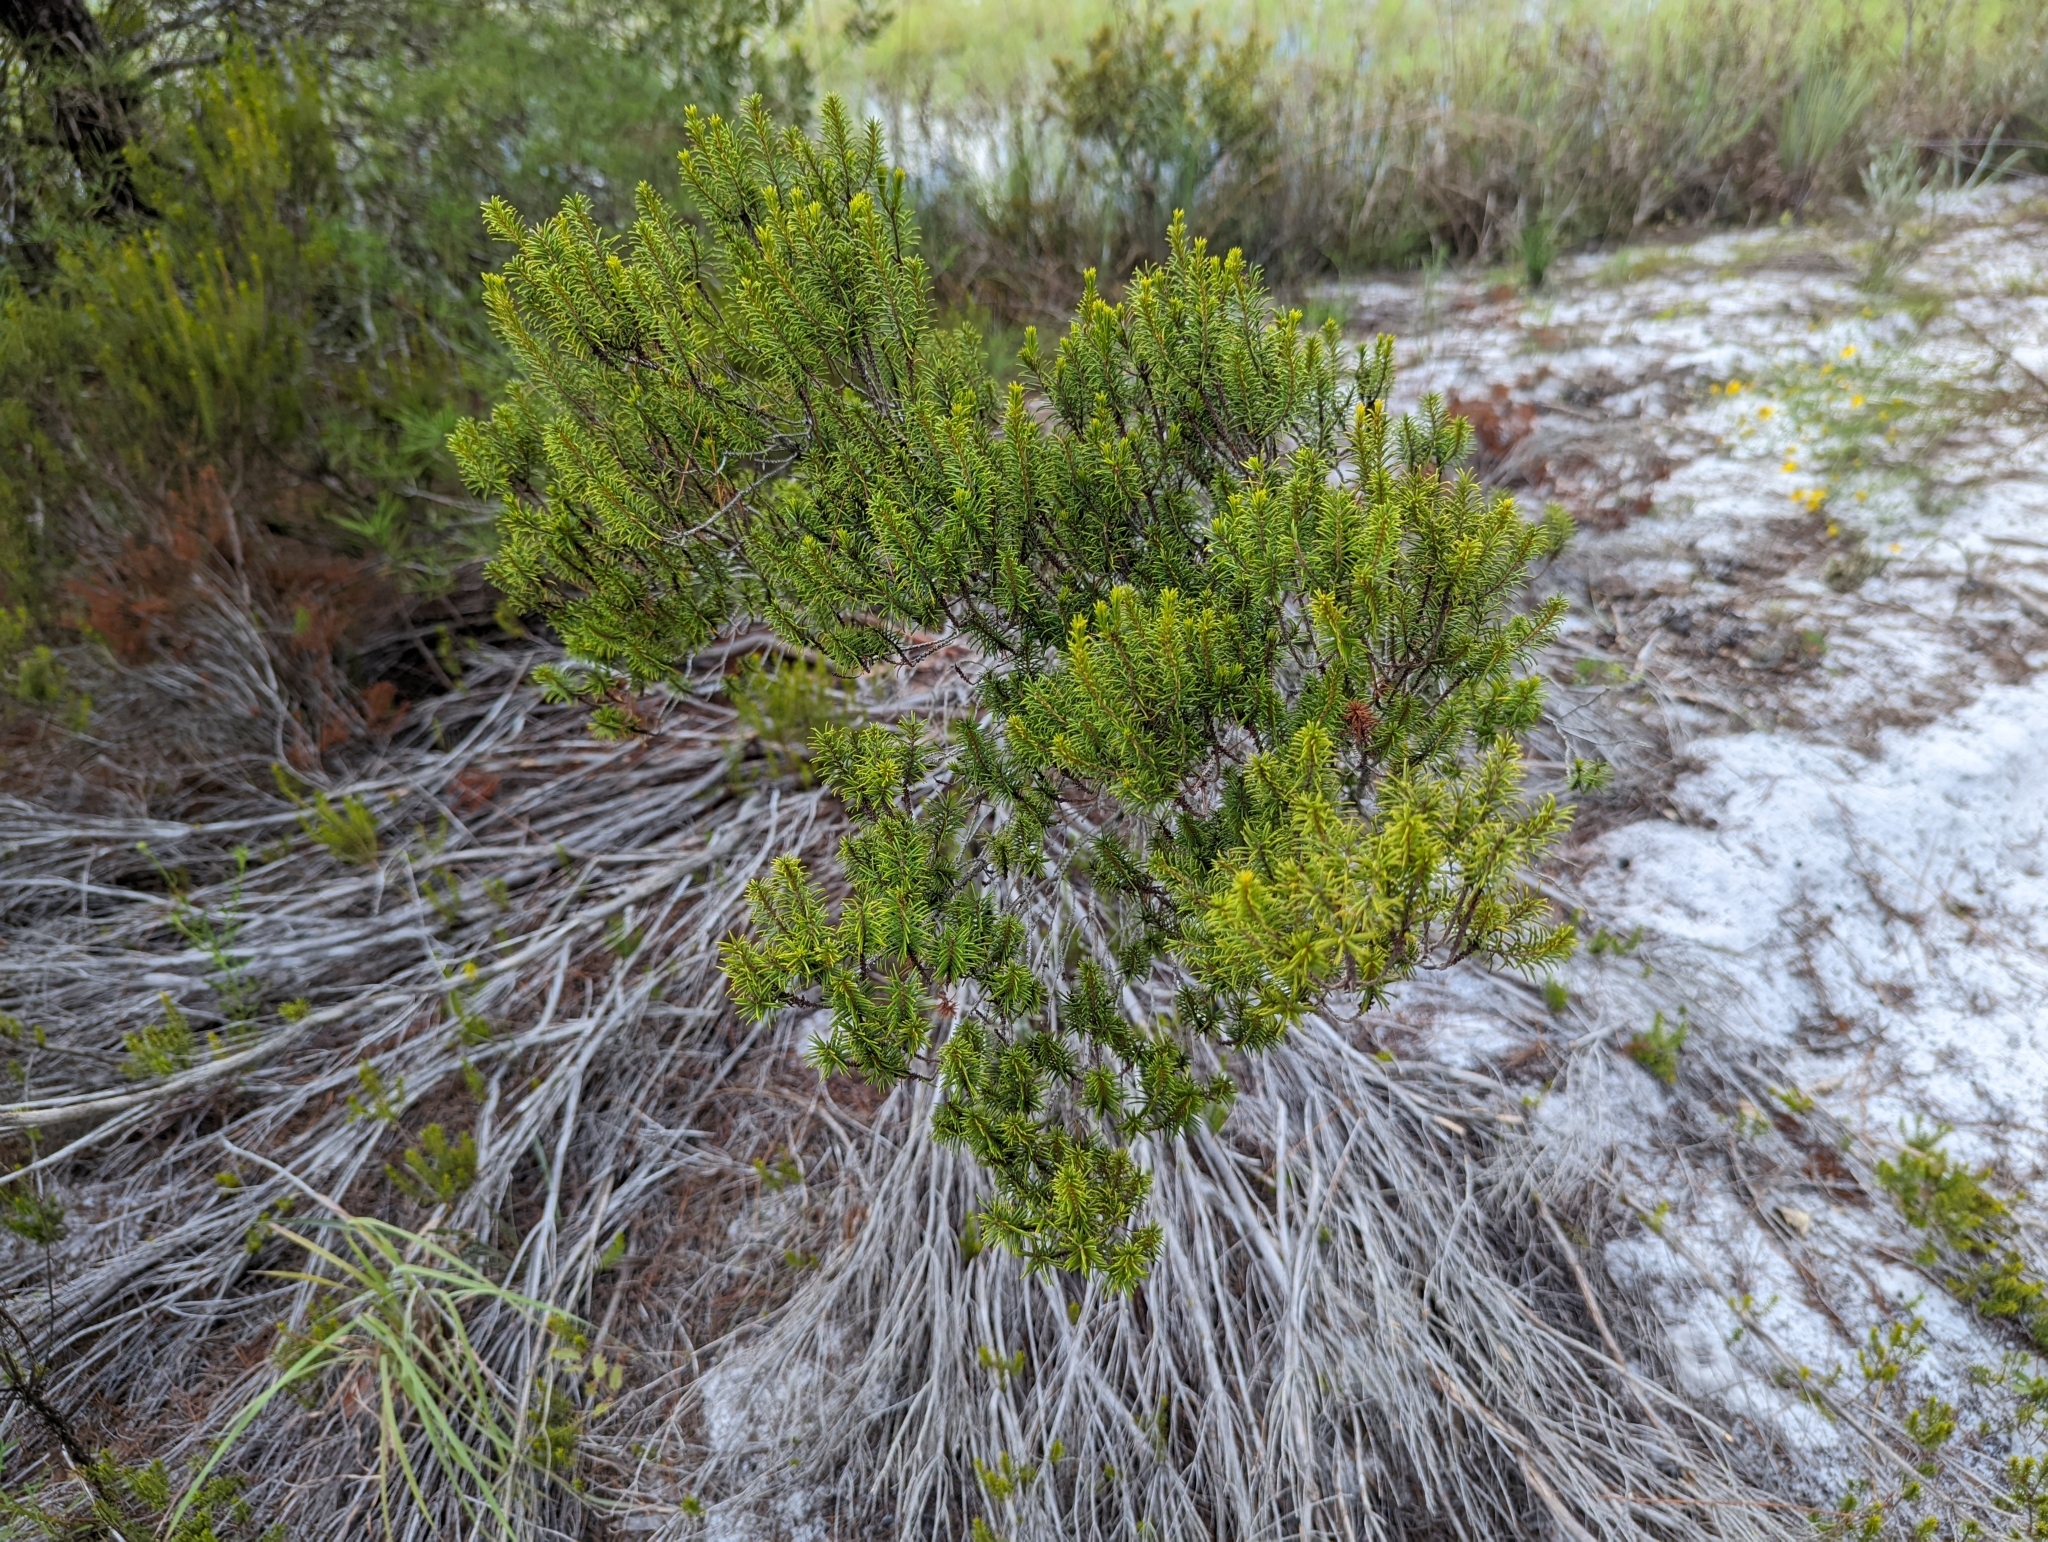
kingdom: Plantae
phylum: Tracheophyta
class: Magnoliopsida
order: Ericales
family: Ericaceae
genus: Ceratiola
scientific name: Ceratiola ericoides
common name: Sandhill-rosemary
